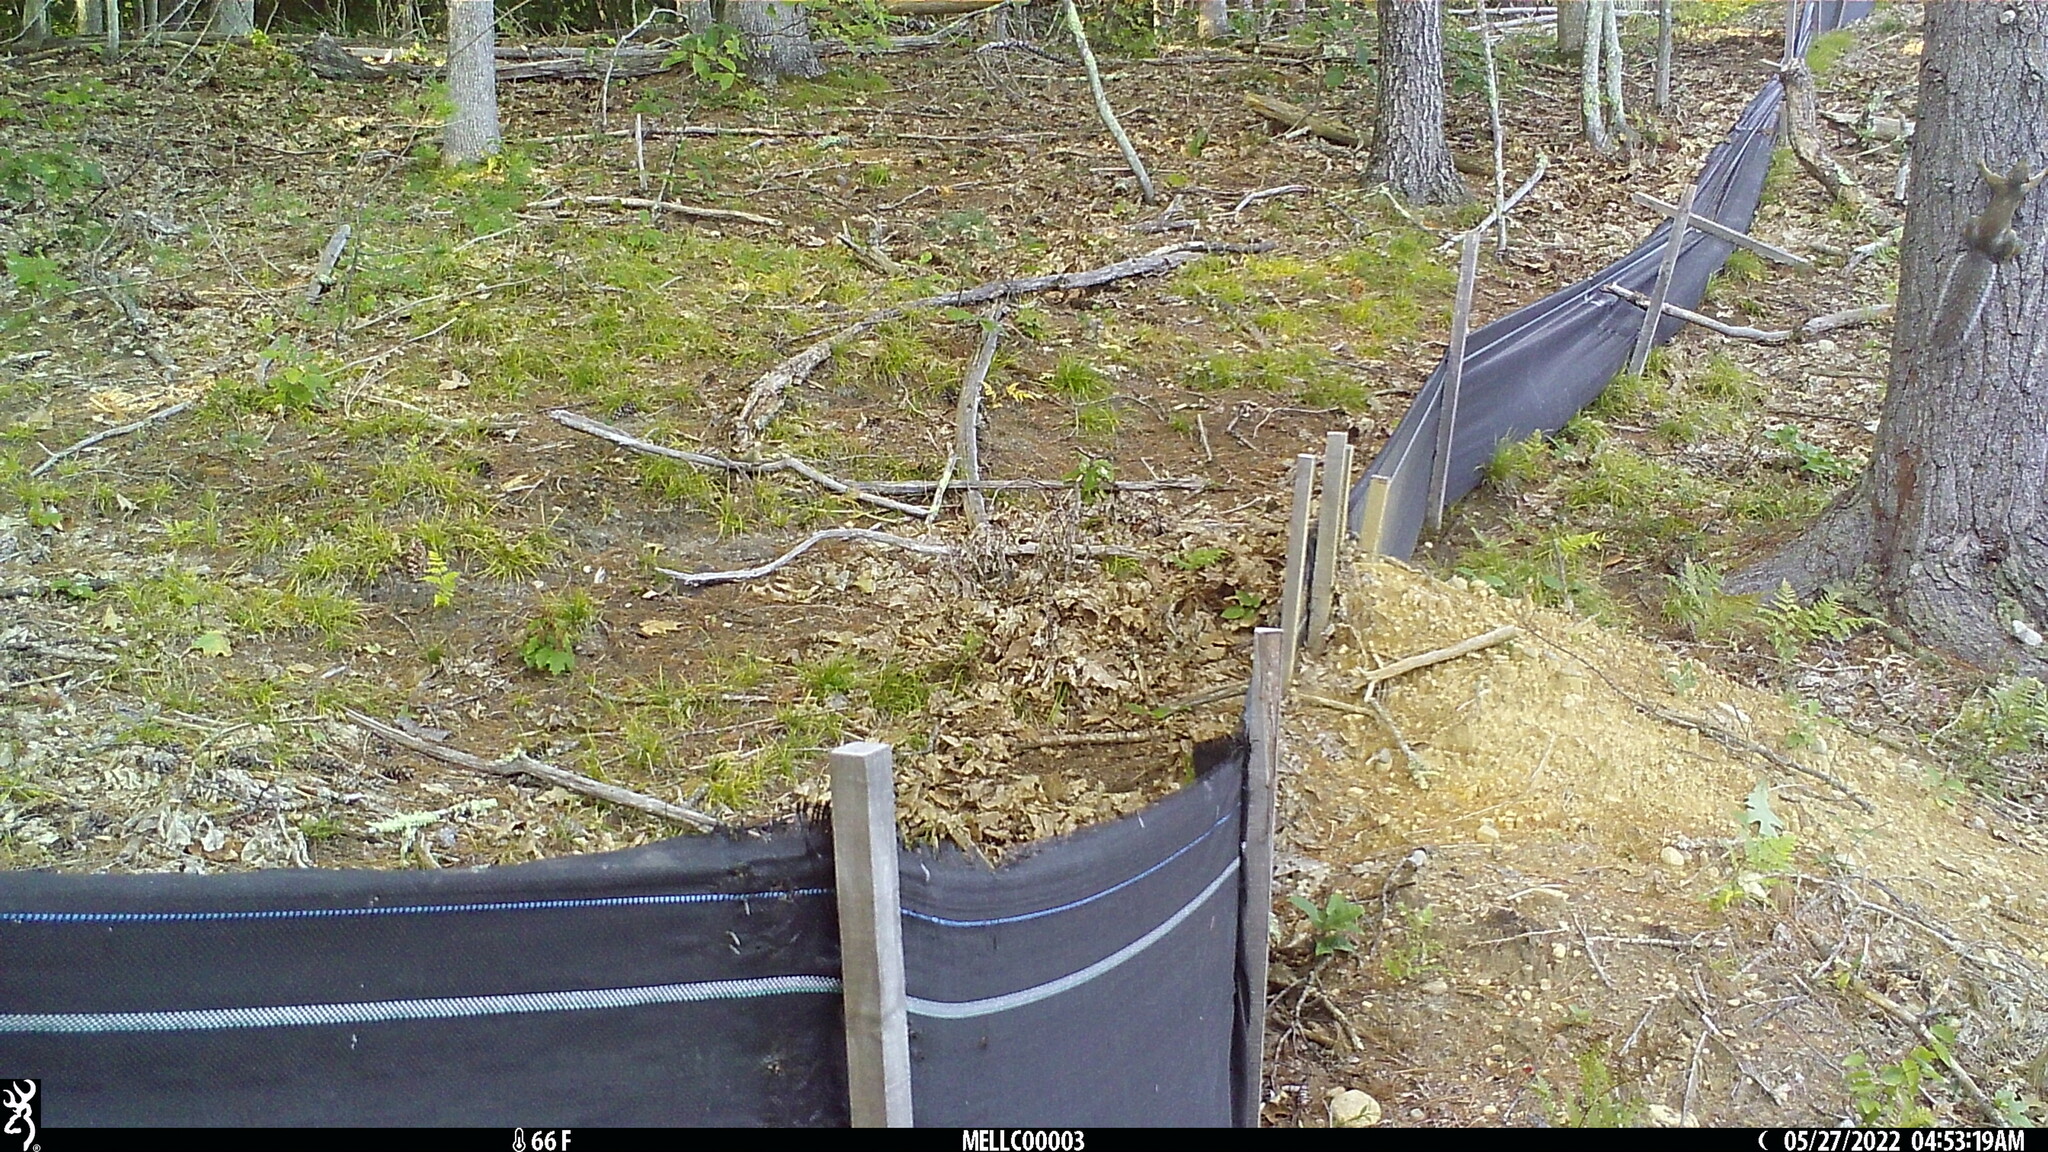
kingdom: Animalia
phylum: Chordata
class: Mammalia
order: Rodentia
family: Sciuridae
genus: Sciurus
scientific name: Sciurus carolinensis
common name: Eastern gray squirrel
